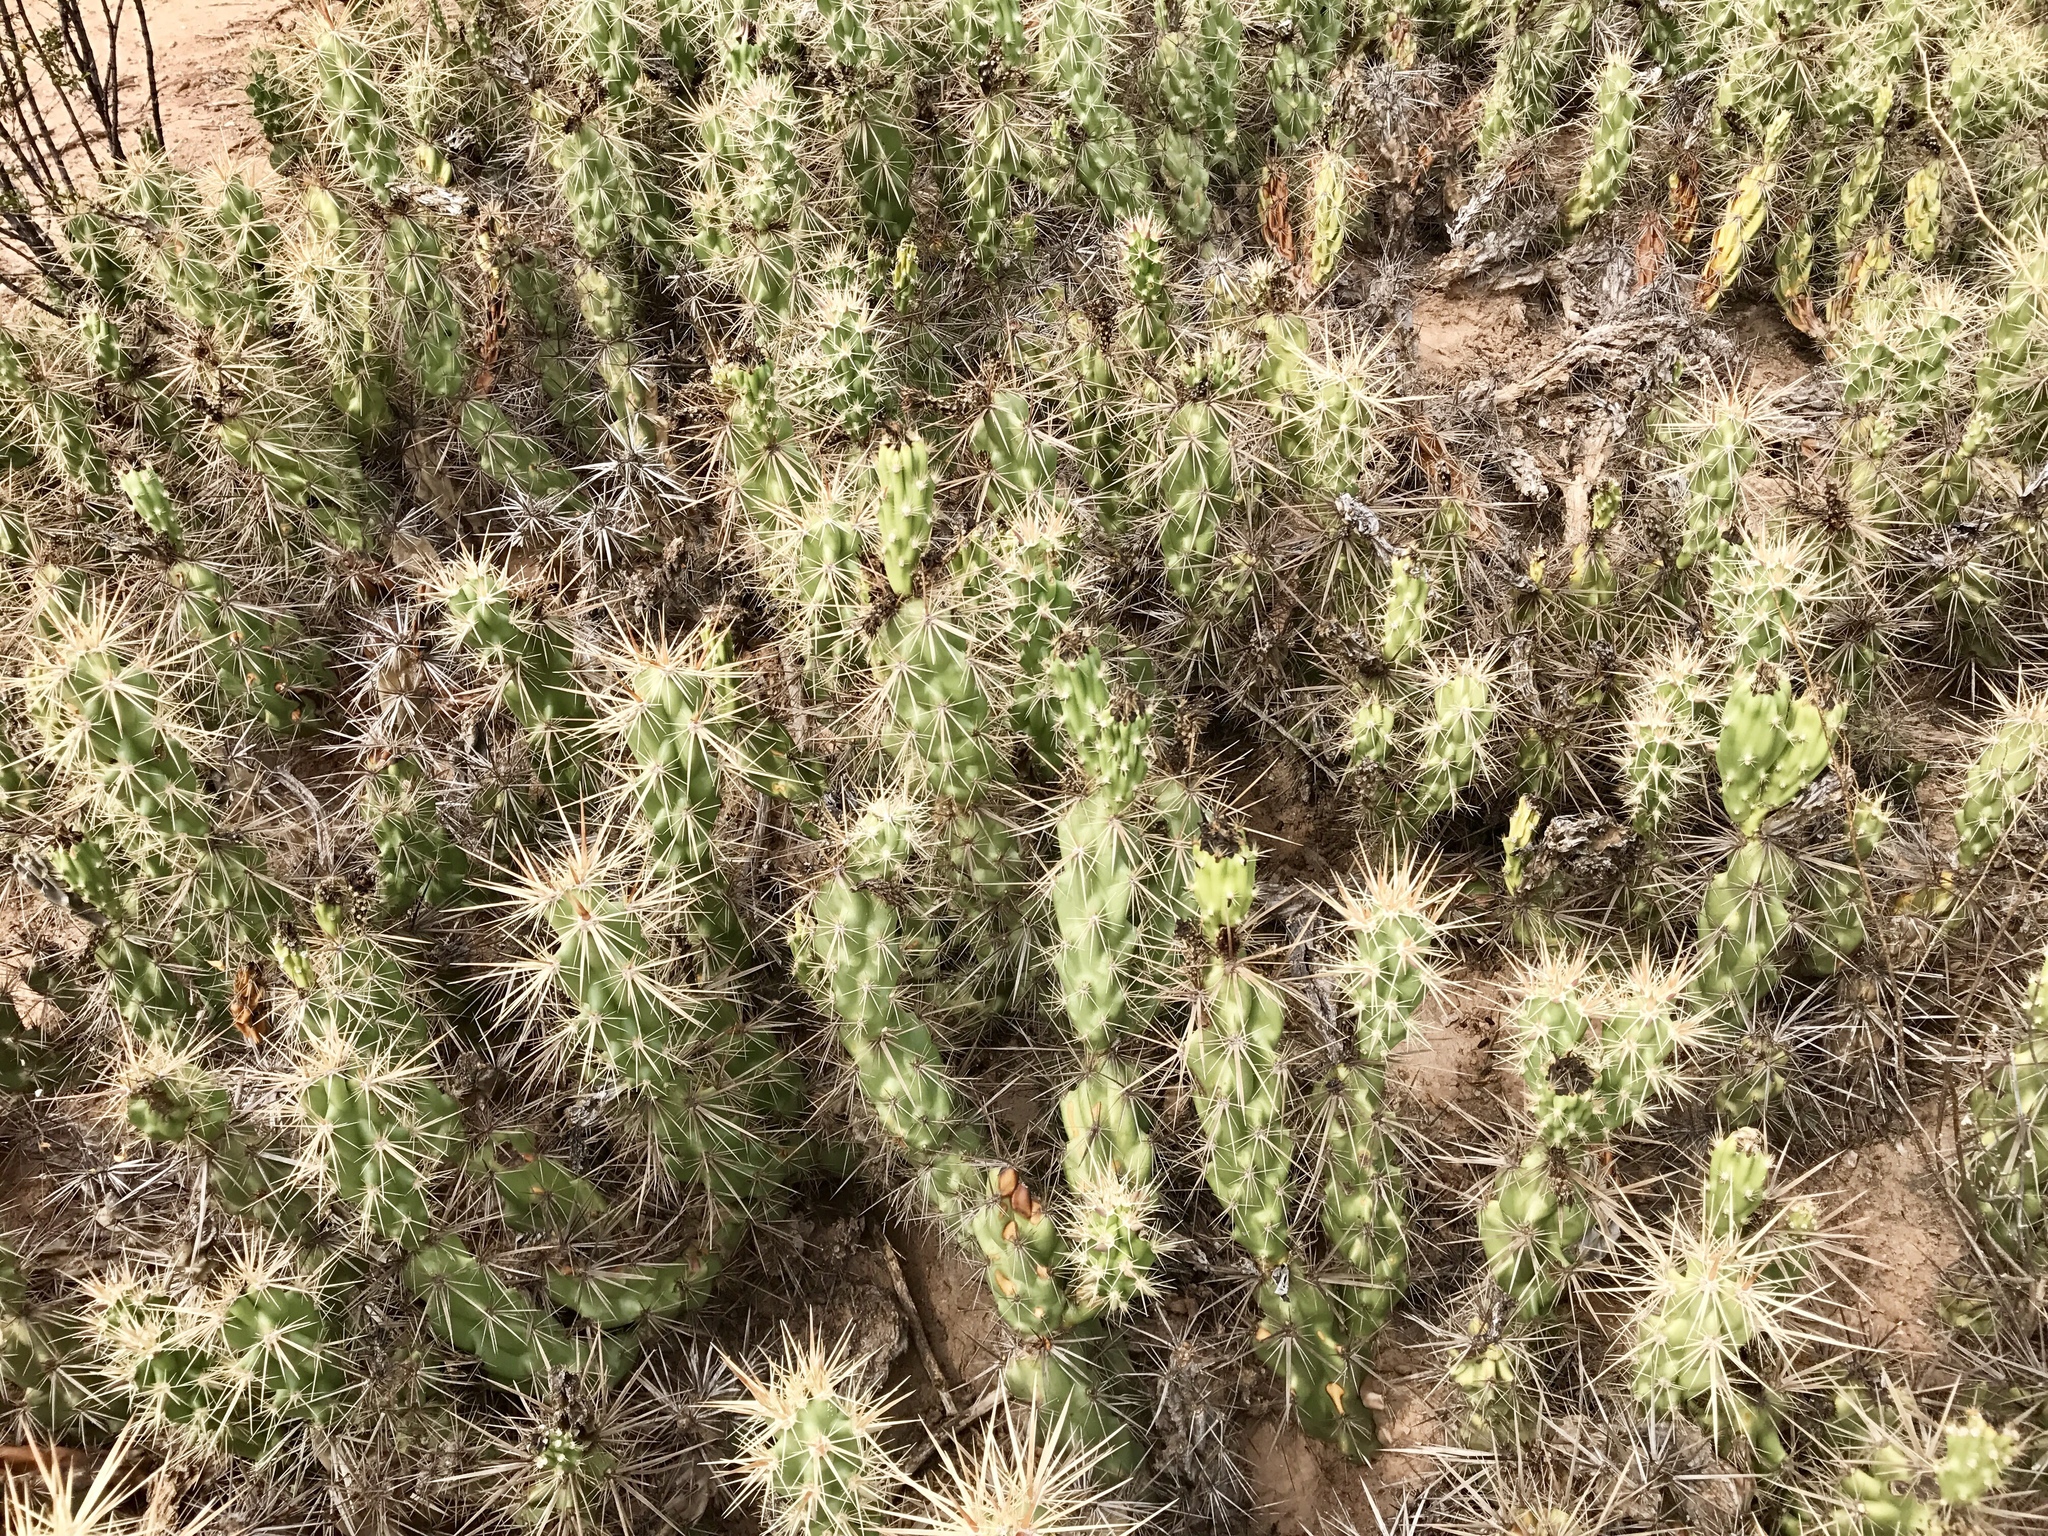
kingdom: Plantae
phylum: Tracheophyta
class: Magnoliopsida
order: Caryophyllales
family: Cactaceae
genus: Grusonia
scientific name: Grusonia emoryi
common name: Stanly's club cholla
